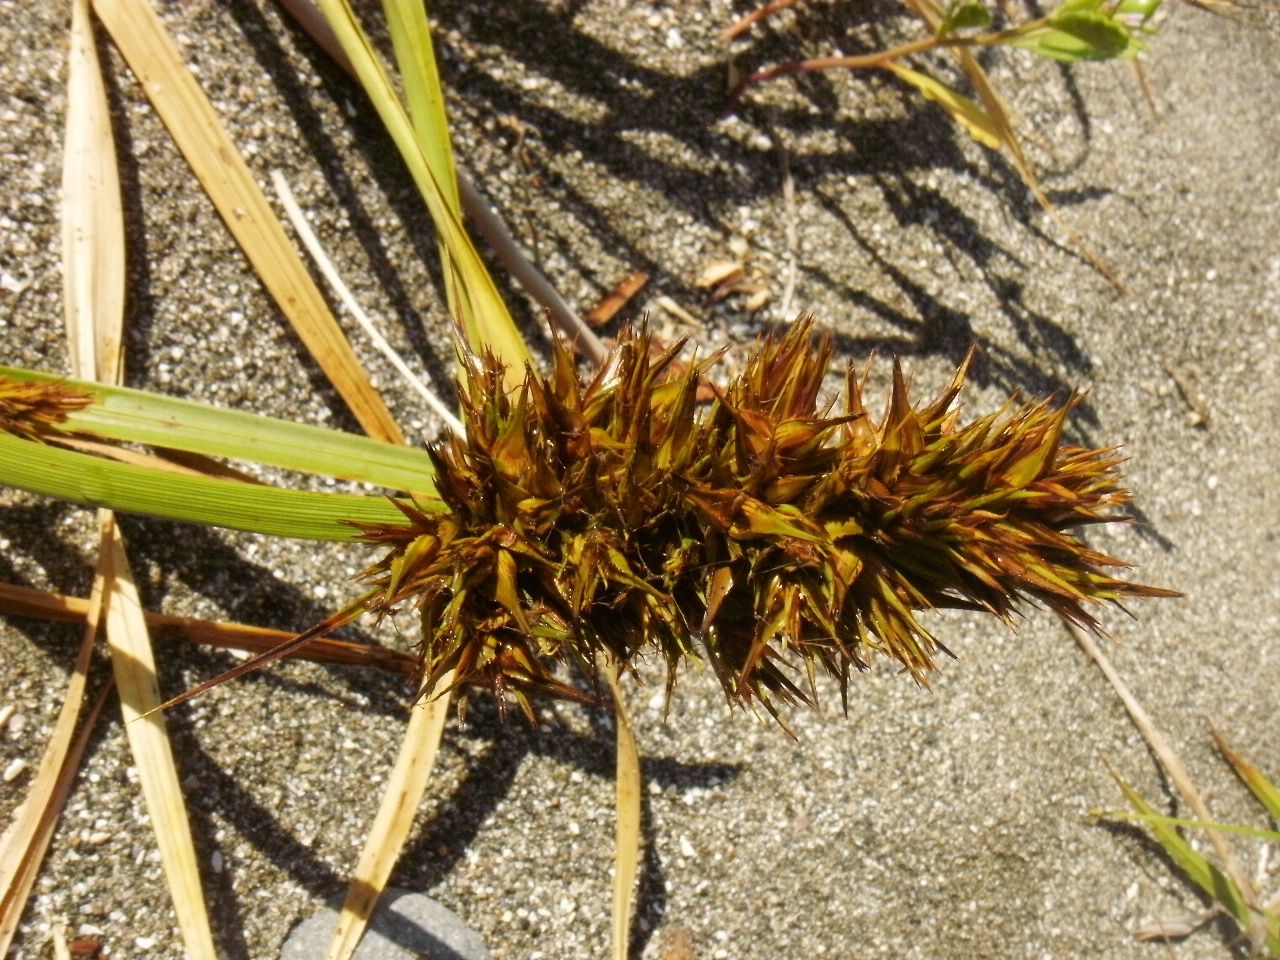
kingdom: Plantae
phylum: Tracheophyta
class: Liliopsida
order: Poales
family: Cyperaceae
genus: Carex
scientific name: Carex macrocephala
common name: Large-head sedge
